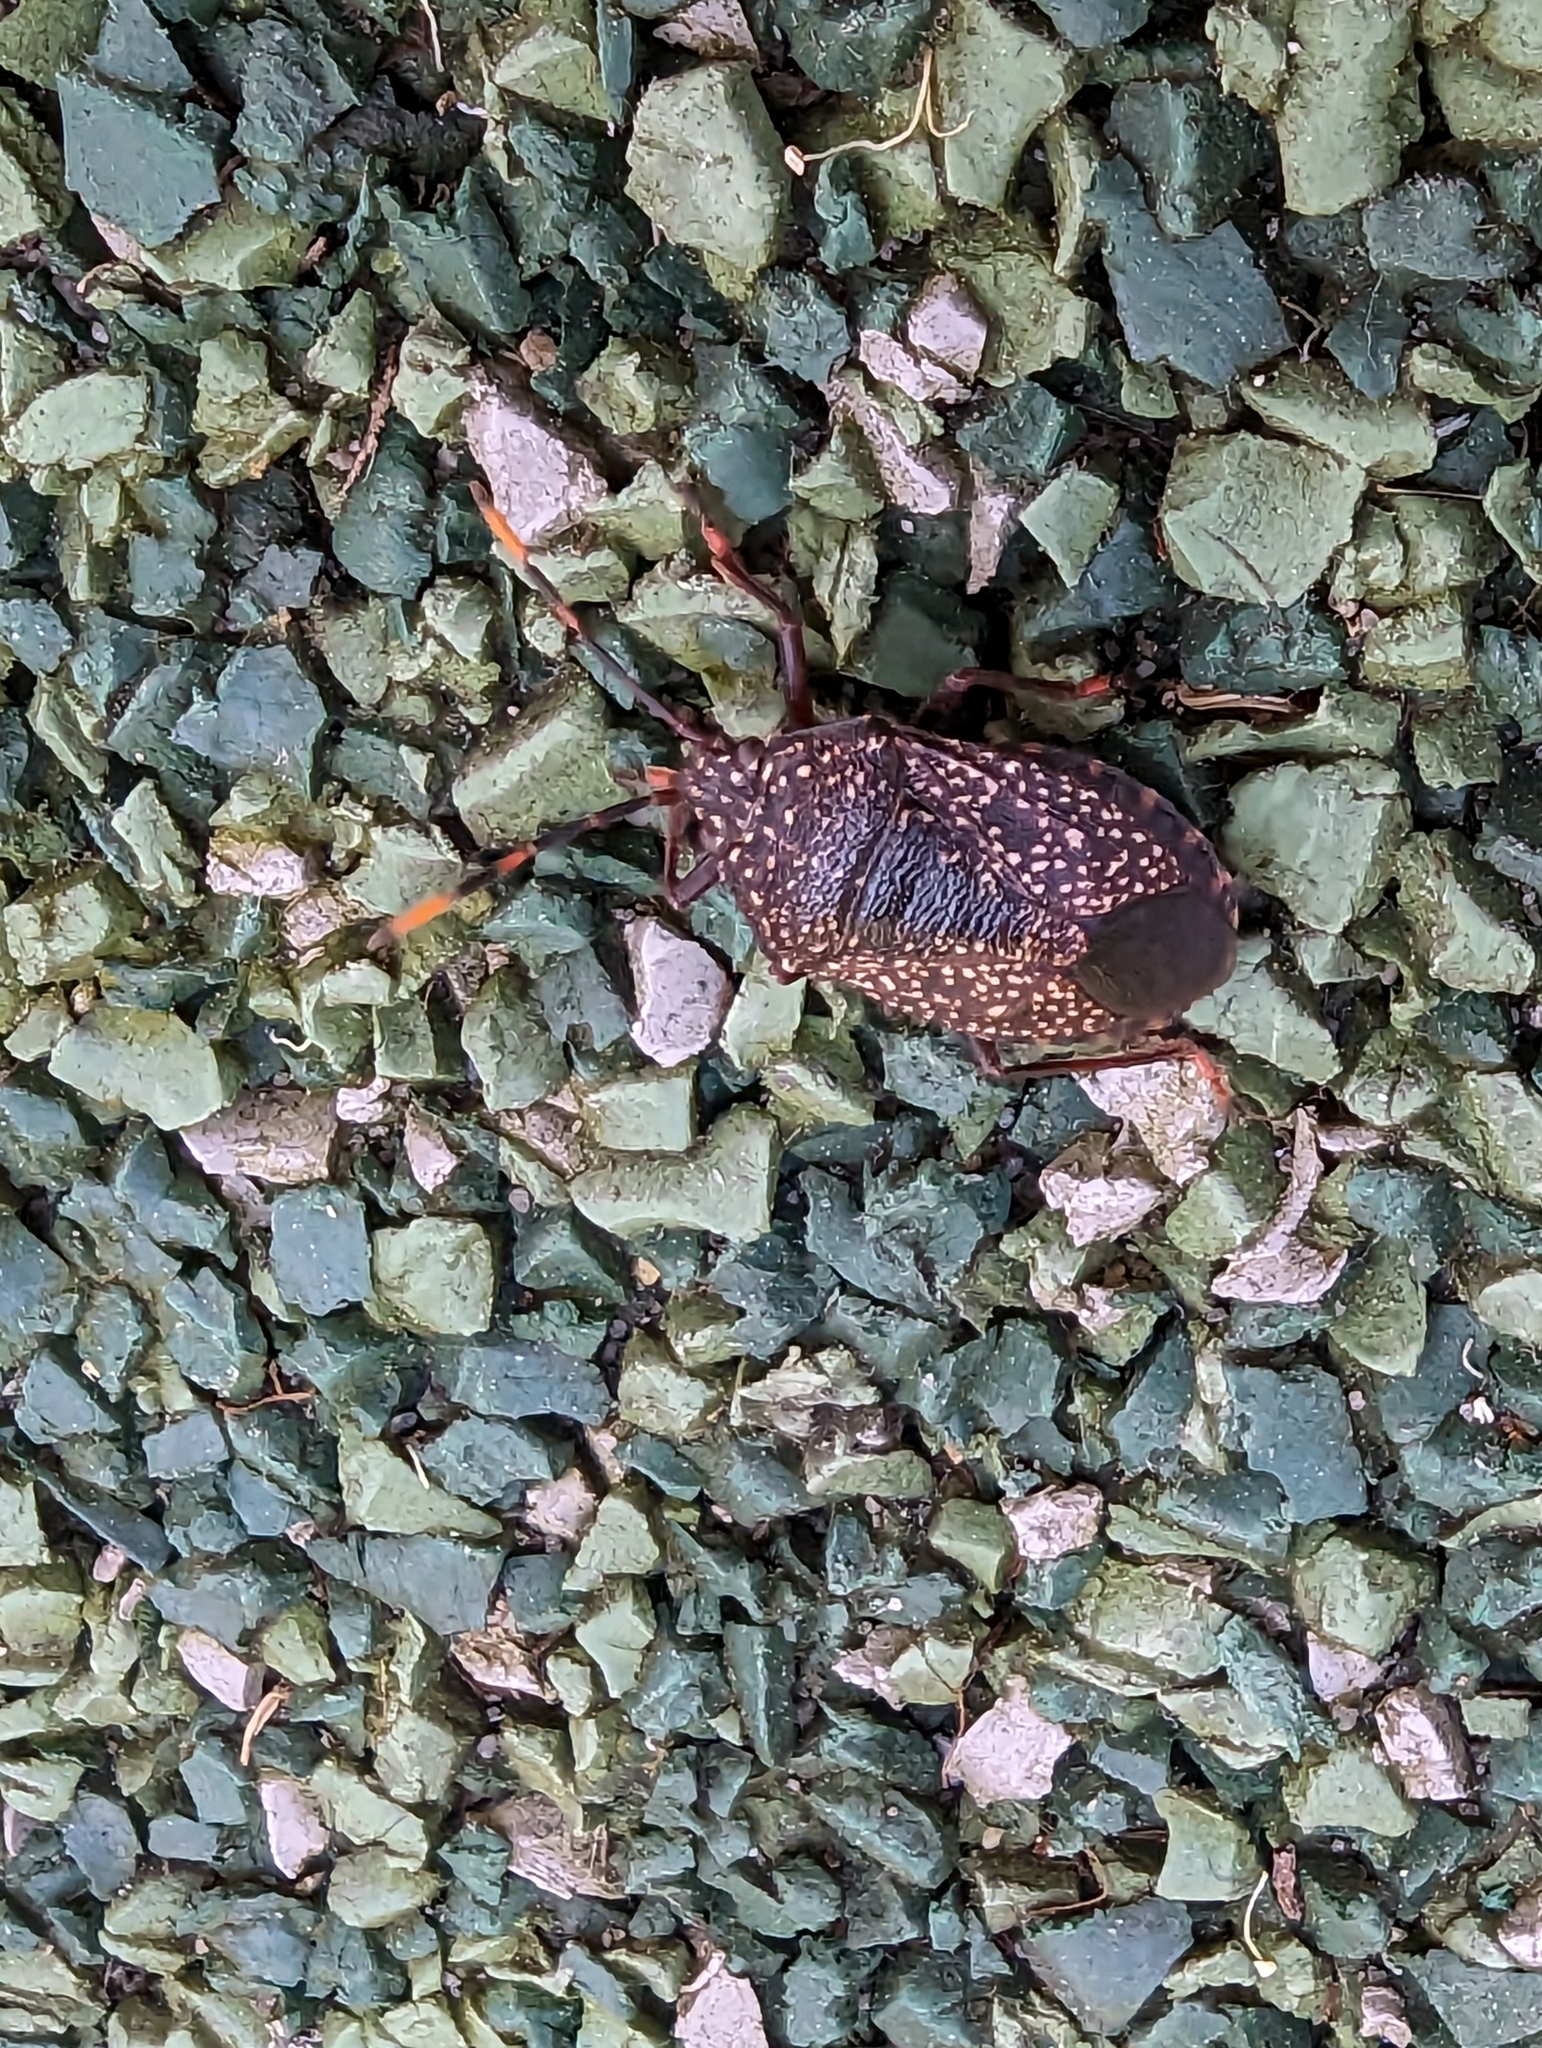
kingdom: Animalia
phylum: Arthropoda
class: Insecta
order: Hemiptera
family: Pentatomidae
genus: Notius
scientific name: Notius
